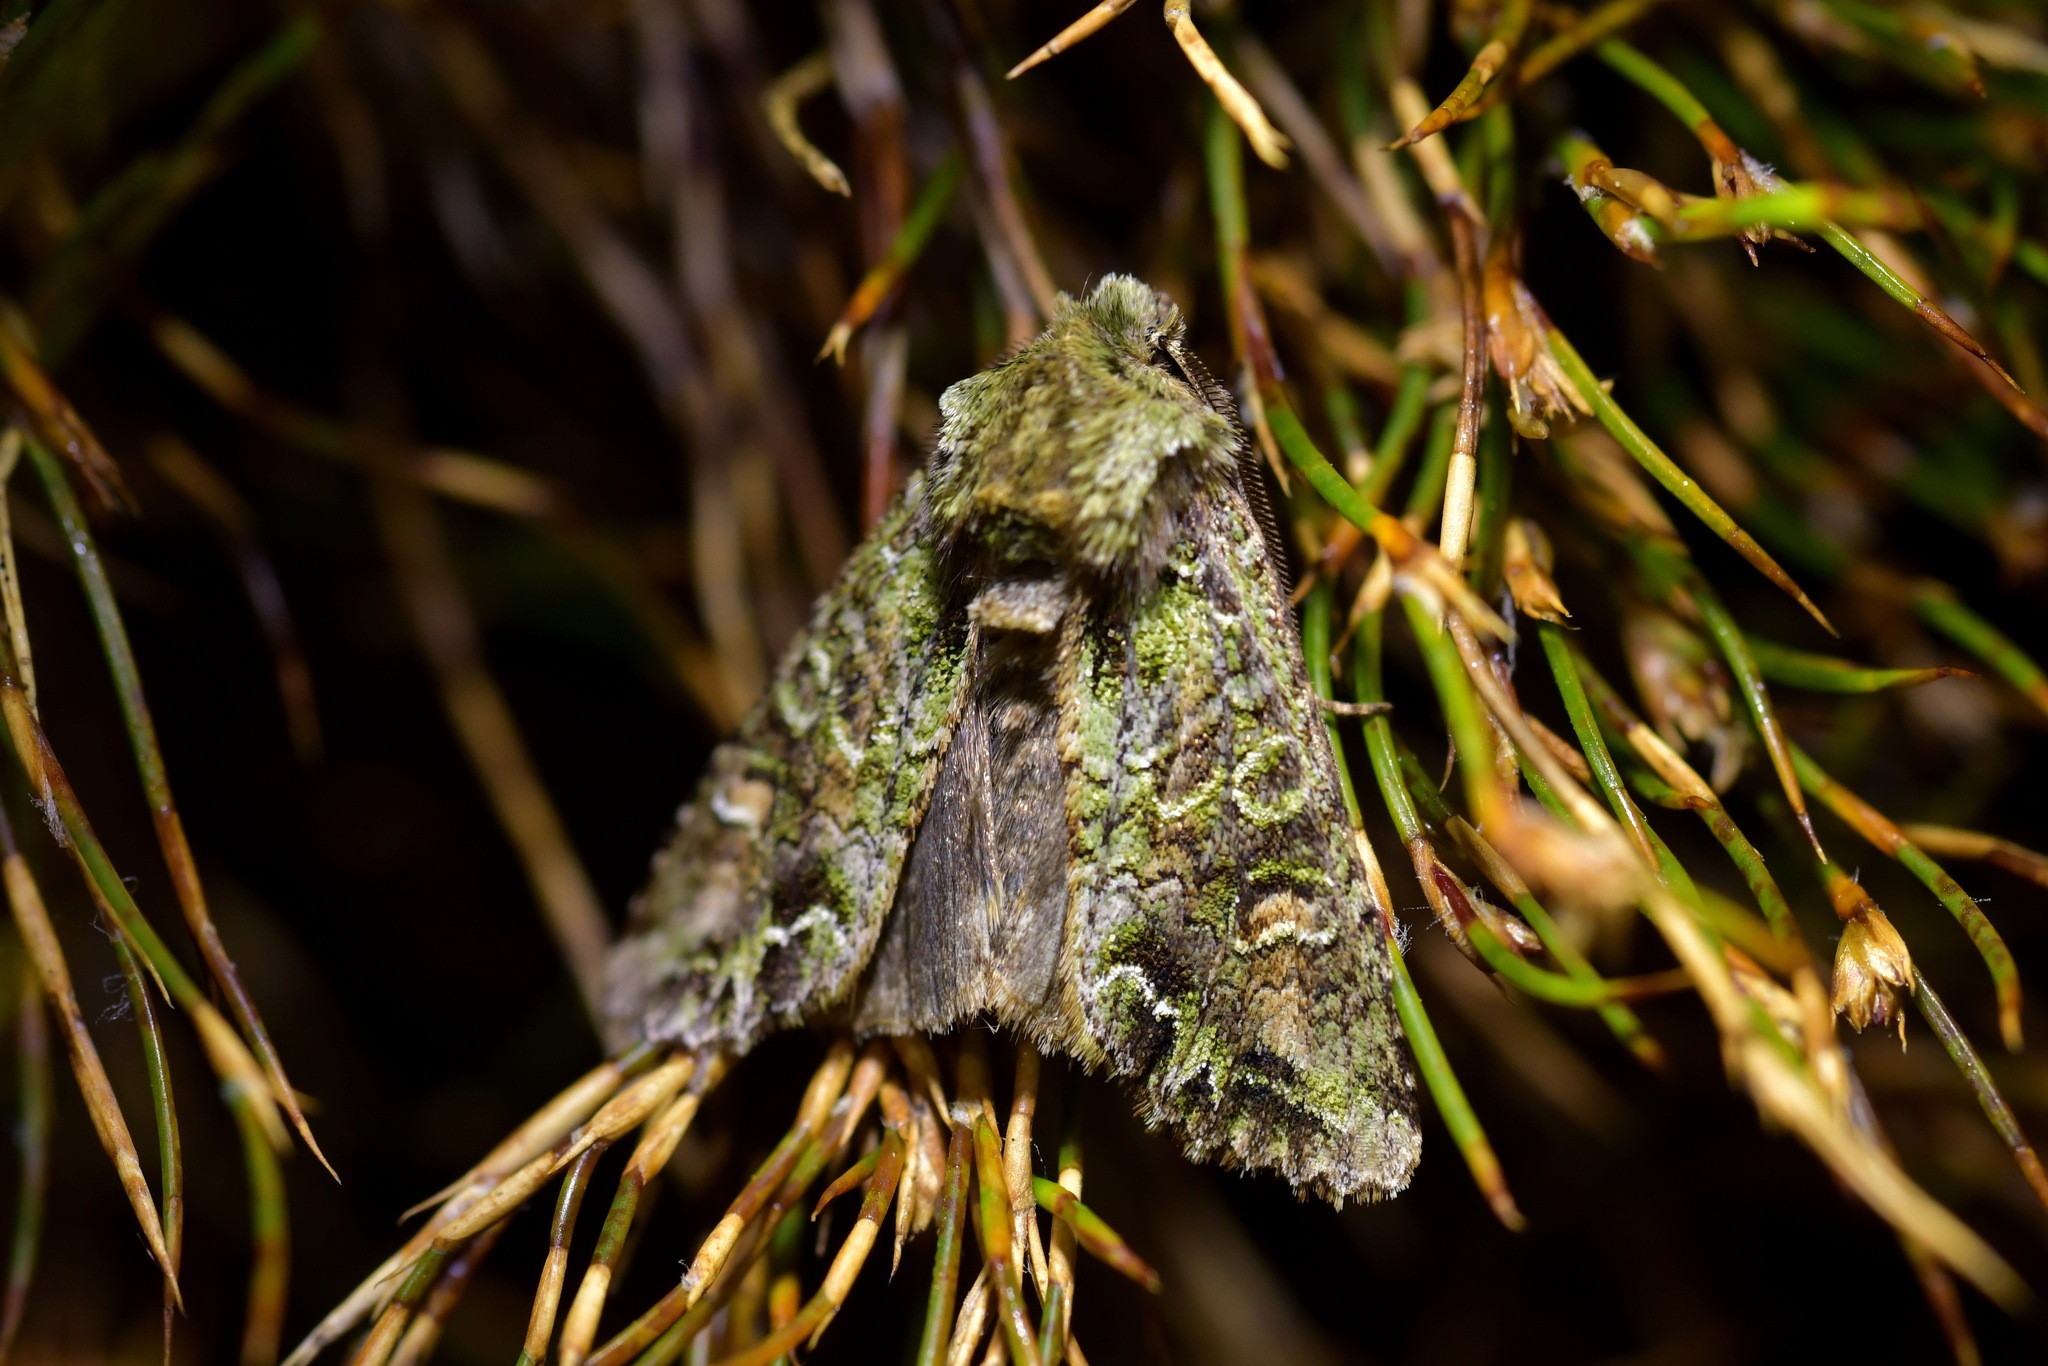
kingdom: Animalia
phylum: Arthropoda
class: Insecta
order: Lepidoptera
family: Noctuidae
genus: Ichneutica
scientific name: Ichneutica
